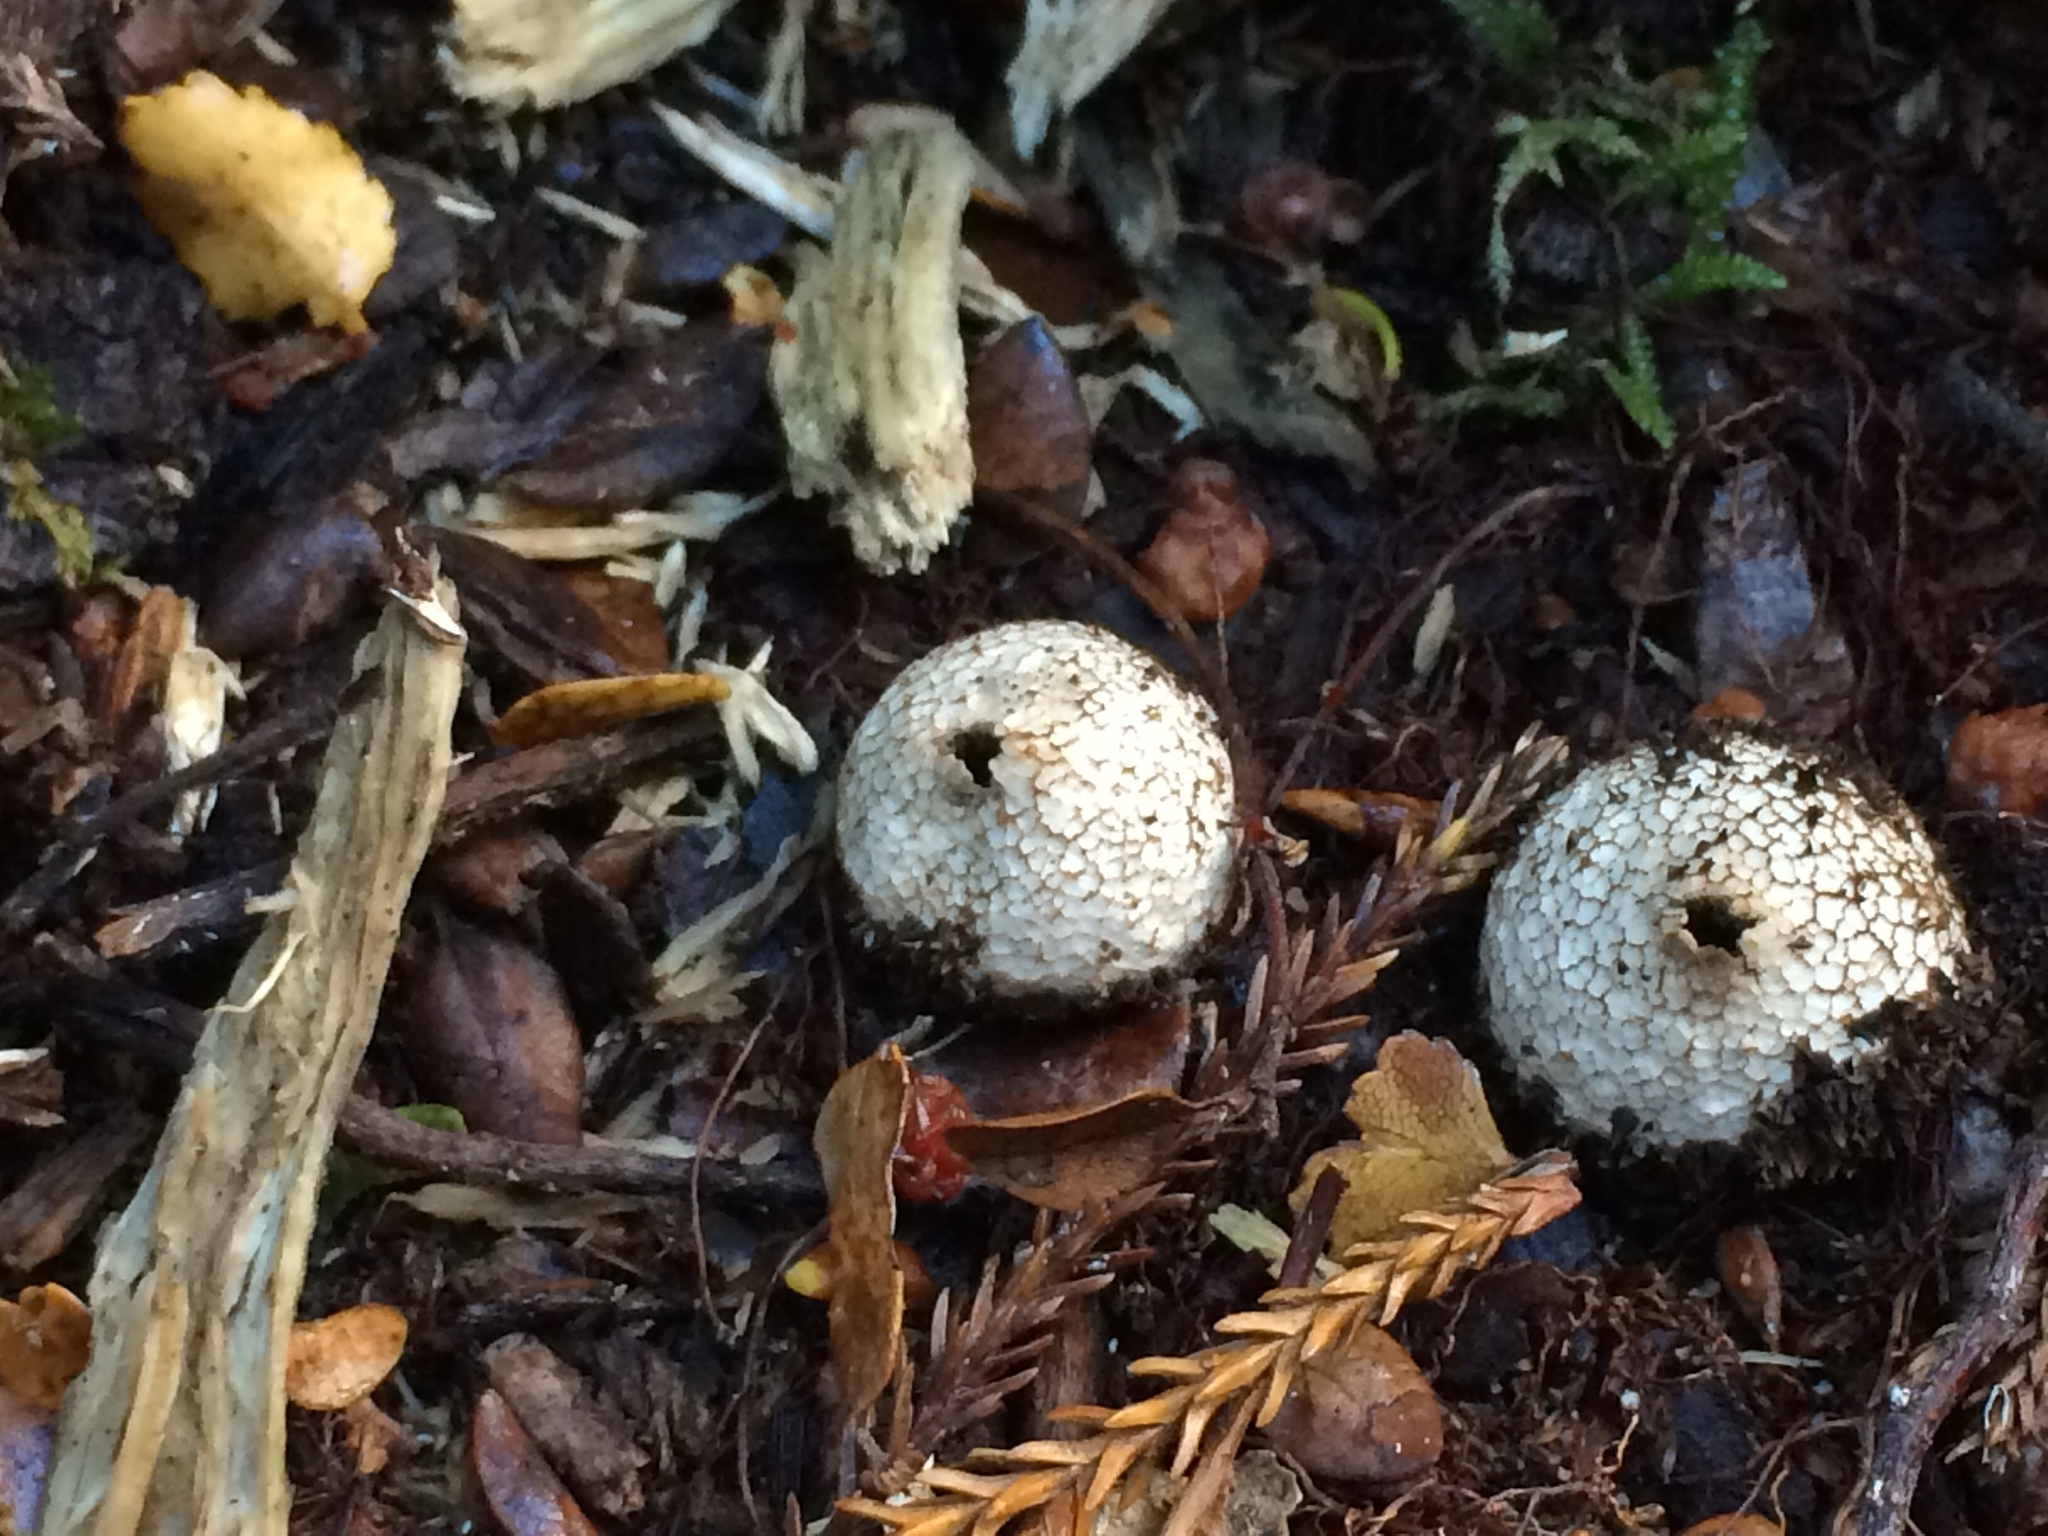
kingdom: Fungi
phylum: Basidiomycota
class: Agaricomycetes
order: Agaricales
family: Lycoperdaceae
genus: Lycoperdon
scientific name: Lycoperdon compactum
